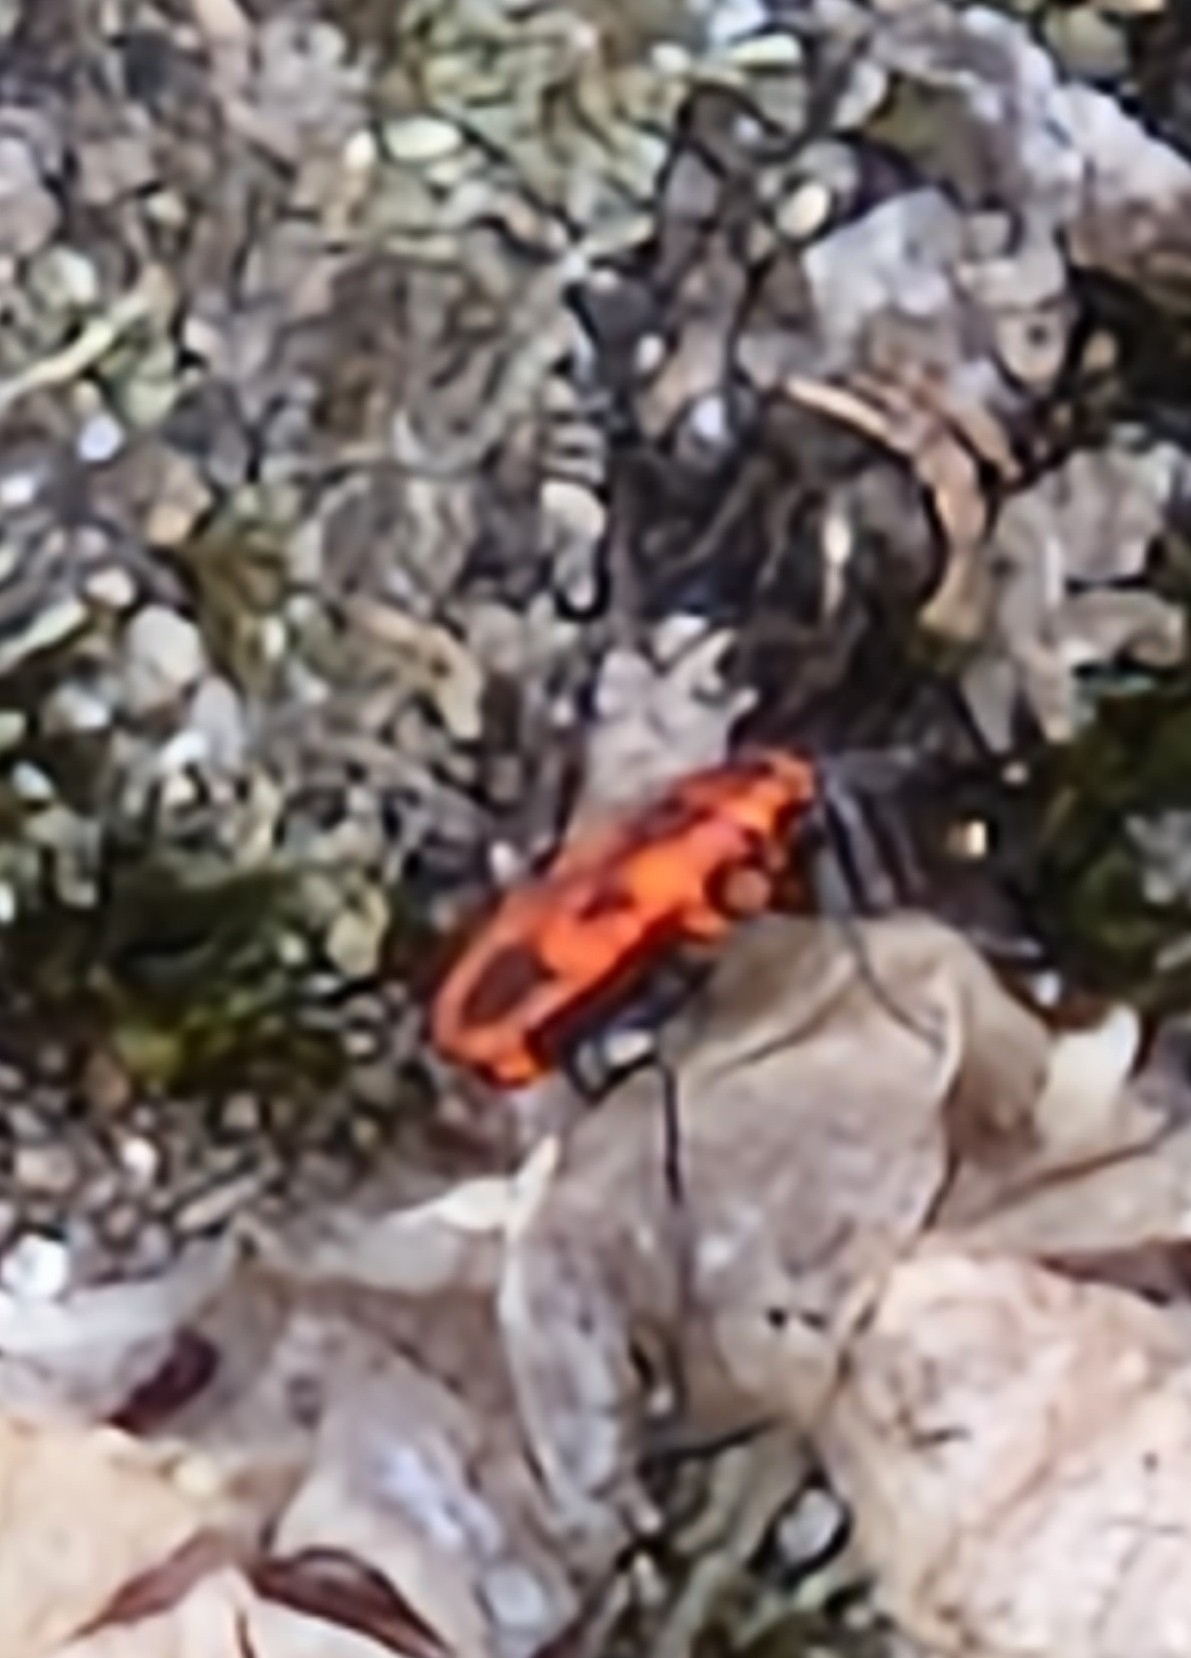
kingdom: Animalia
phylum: Arthropoda
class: Insecta
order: Hemiptera
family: Pyrrhocoridae
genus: Pyrrhocoris
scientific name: Pyrrhocoris apterus
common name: Firebug
